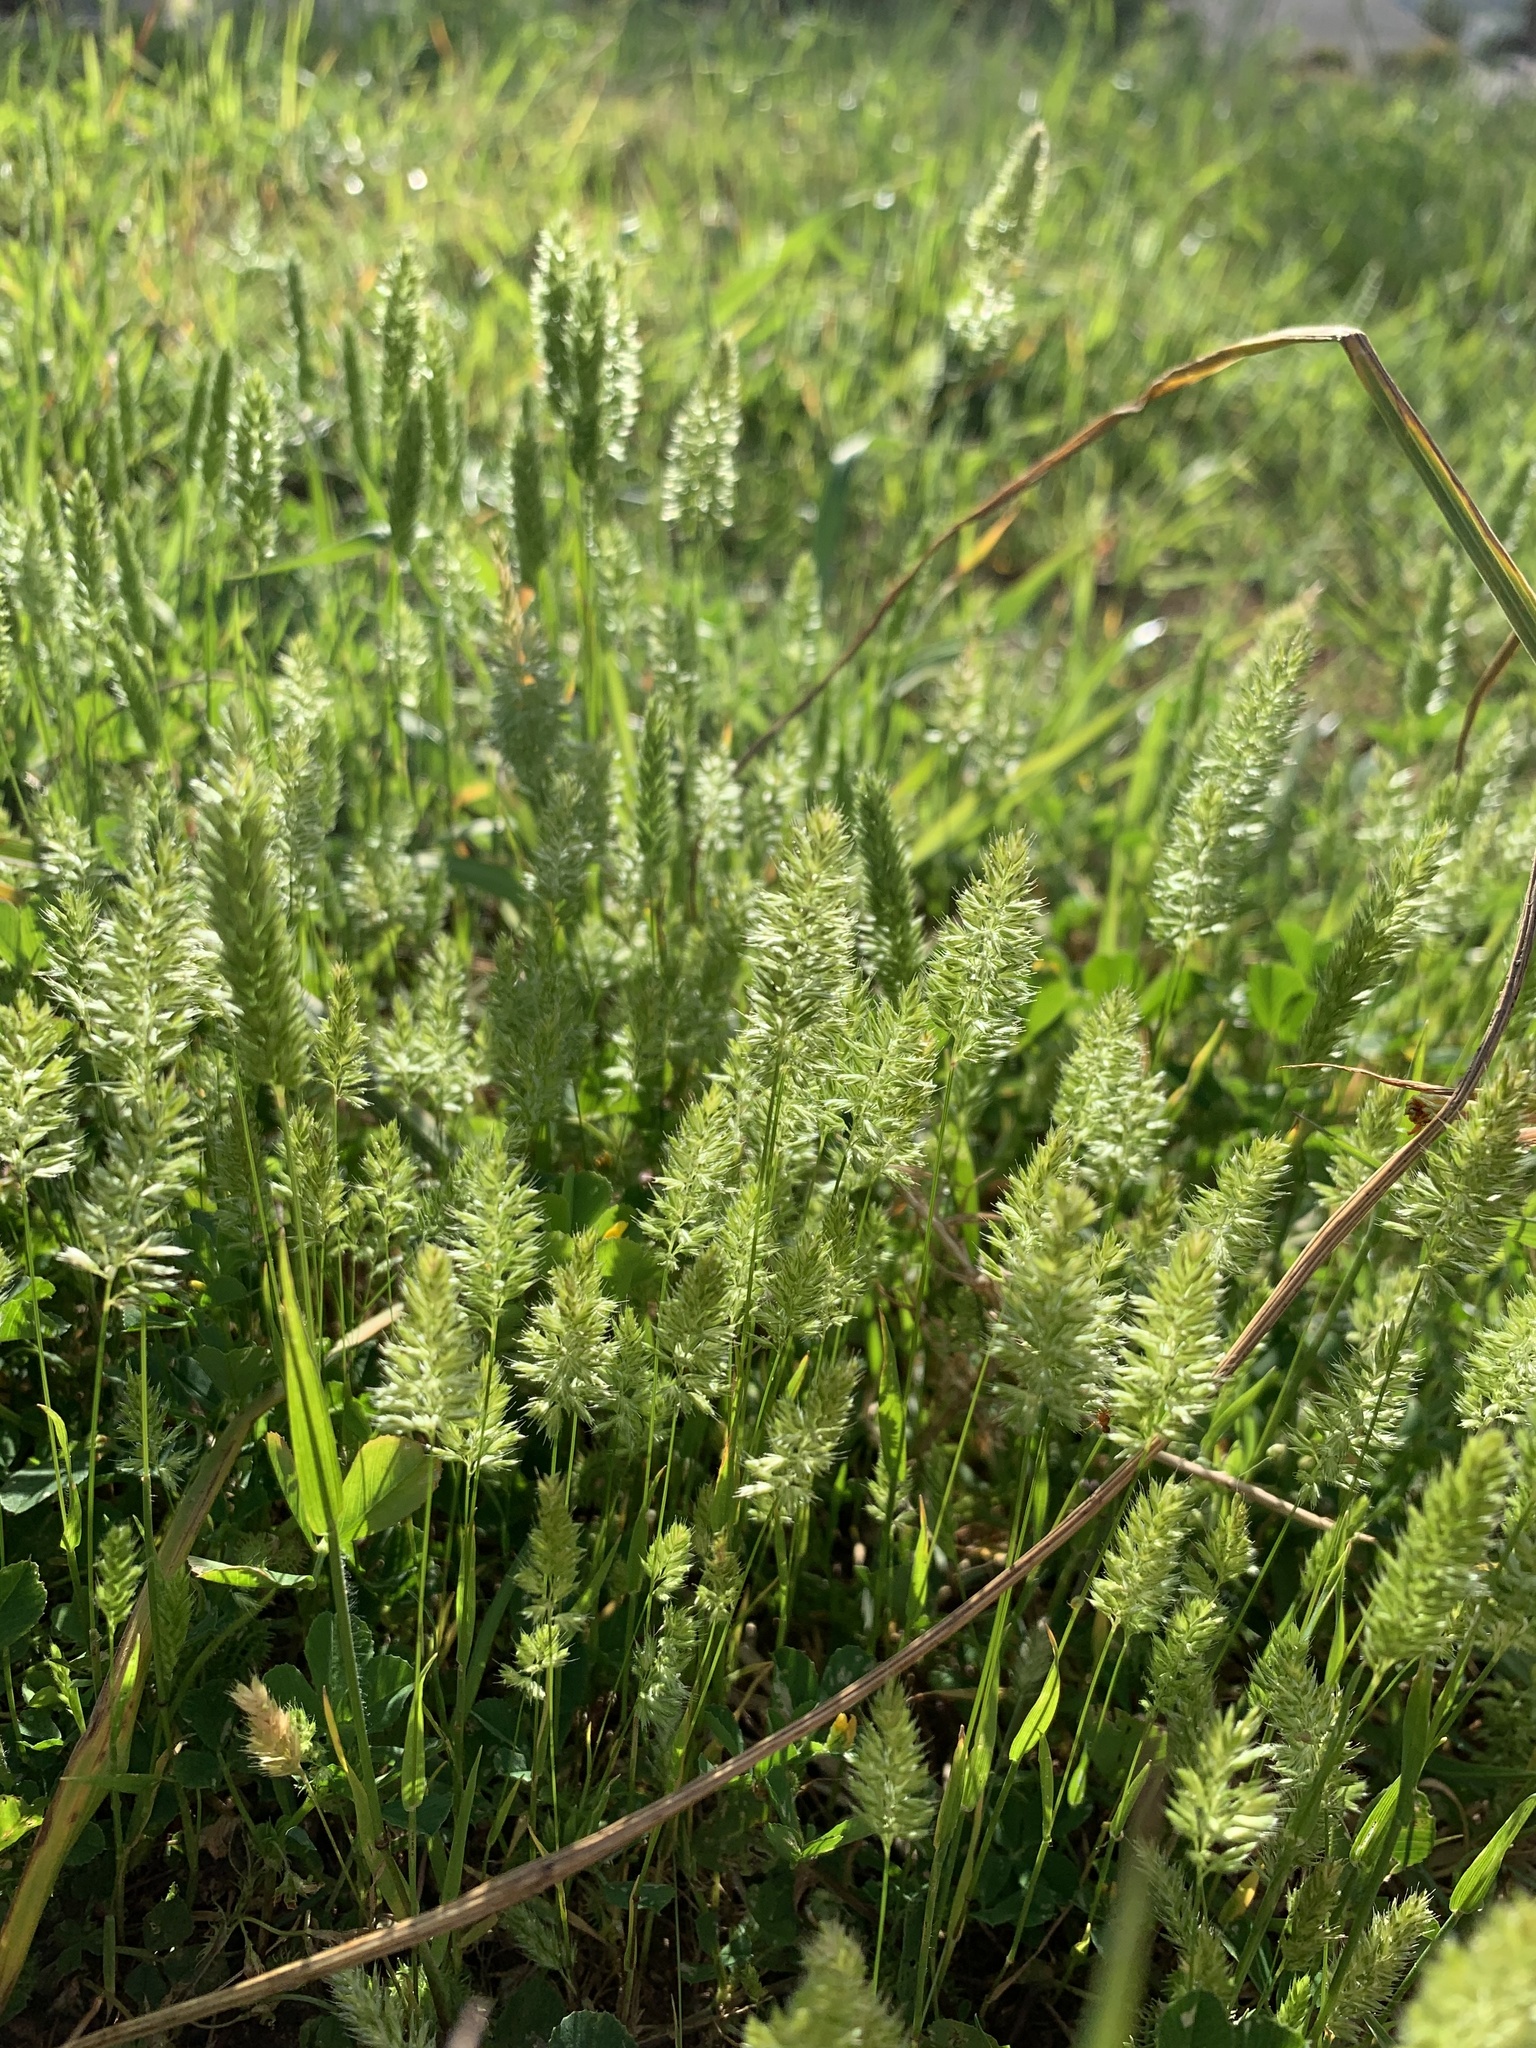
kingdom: Plantae
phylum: Tracheophyta
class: Liliopsida
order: Poales
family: Poaceae
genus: Rostraria
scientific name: Rostraria cristata
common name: Mediterranean hair-grass
